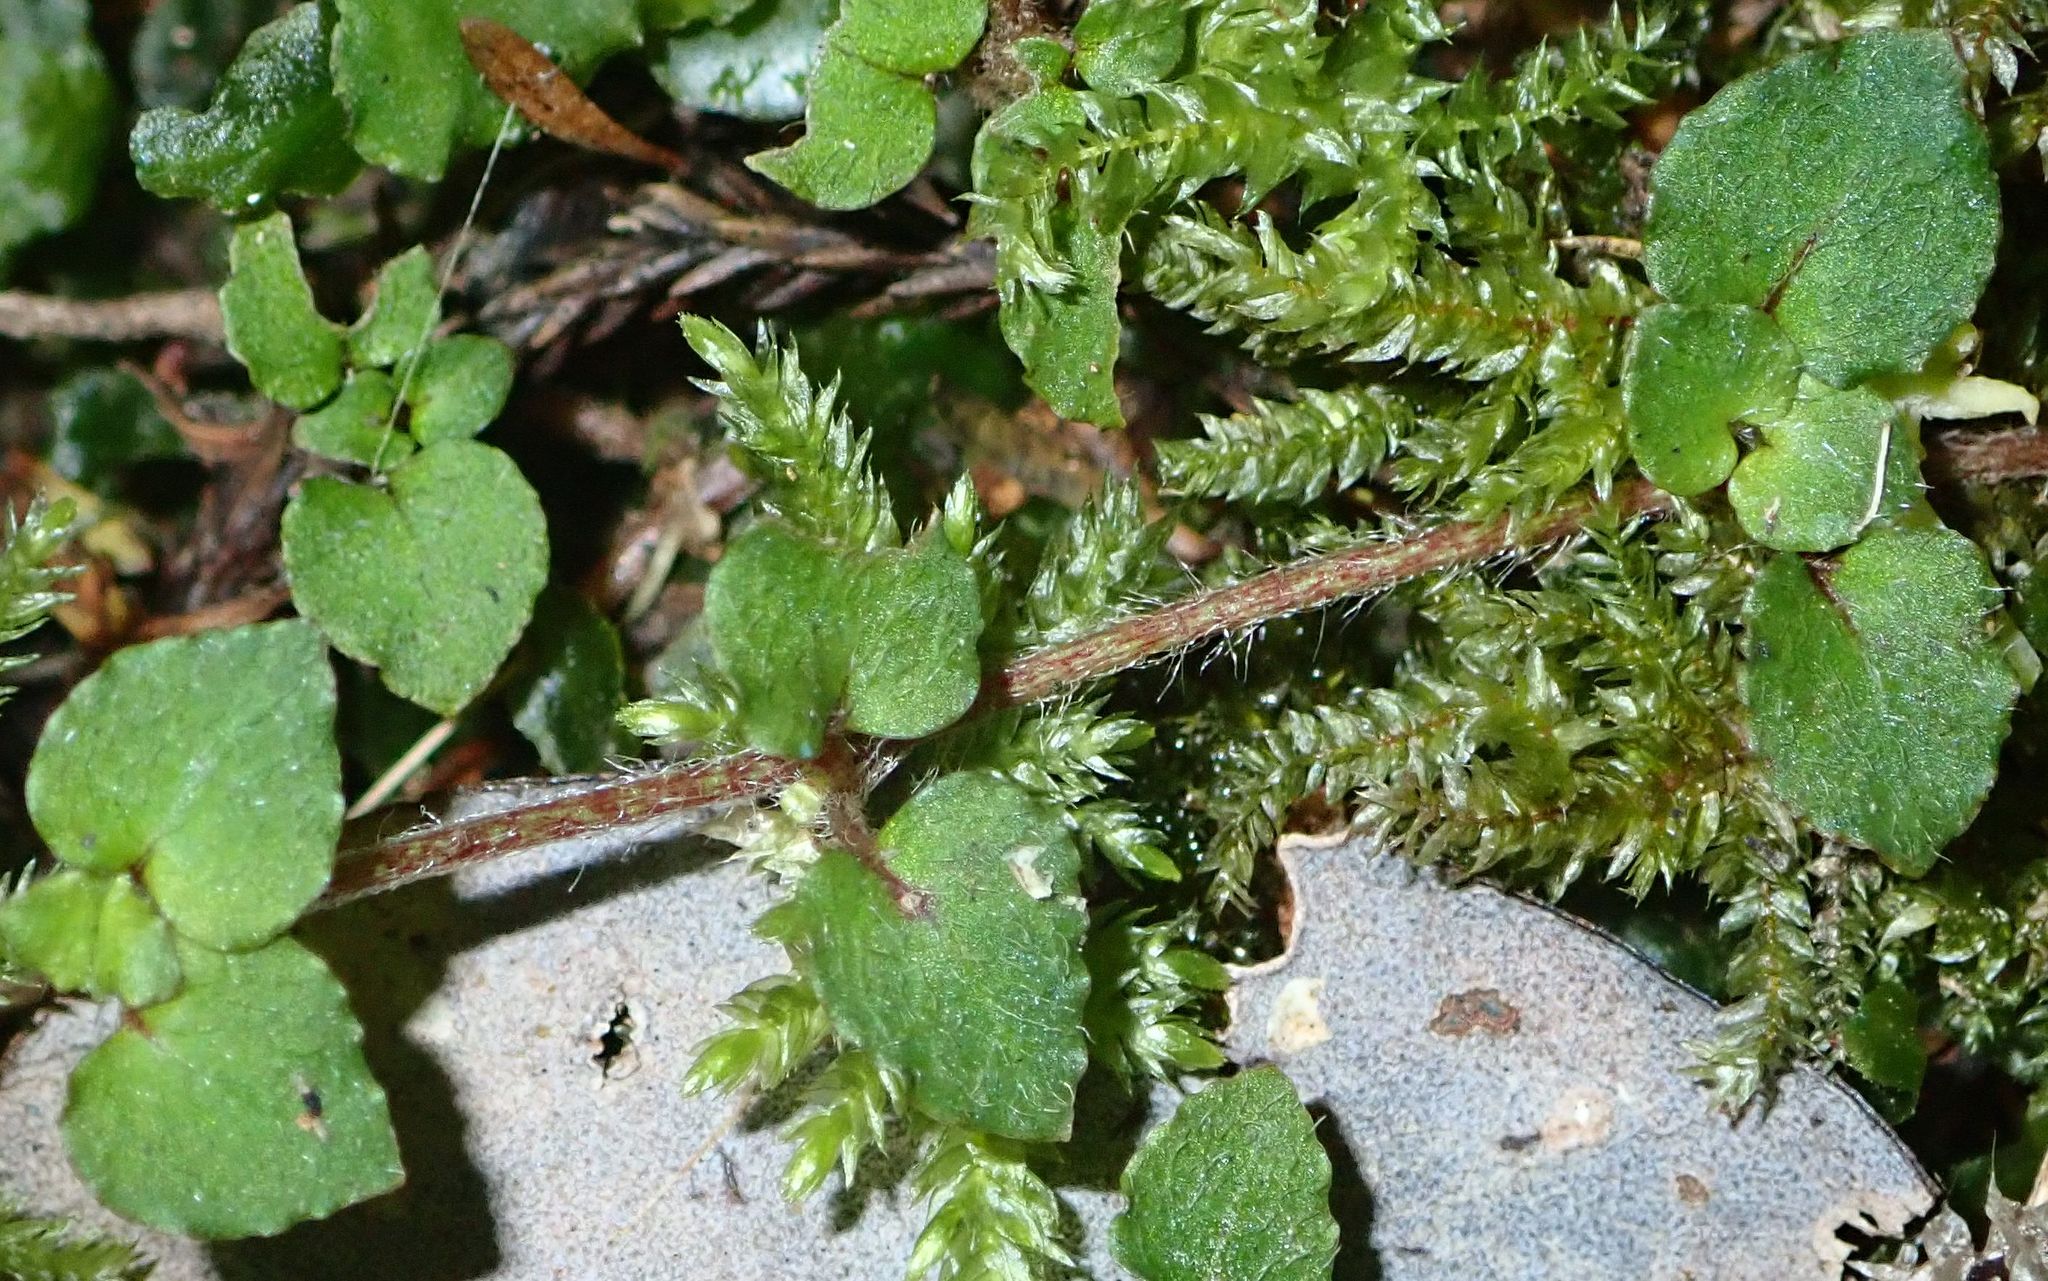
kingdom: Plantae
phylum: Tracheophyta
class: Magnoliopsida
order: Gentianales
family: Rubiaceae
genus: Nertera
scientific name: Nertera villosa
